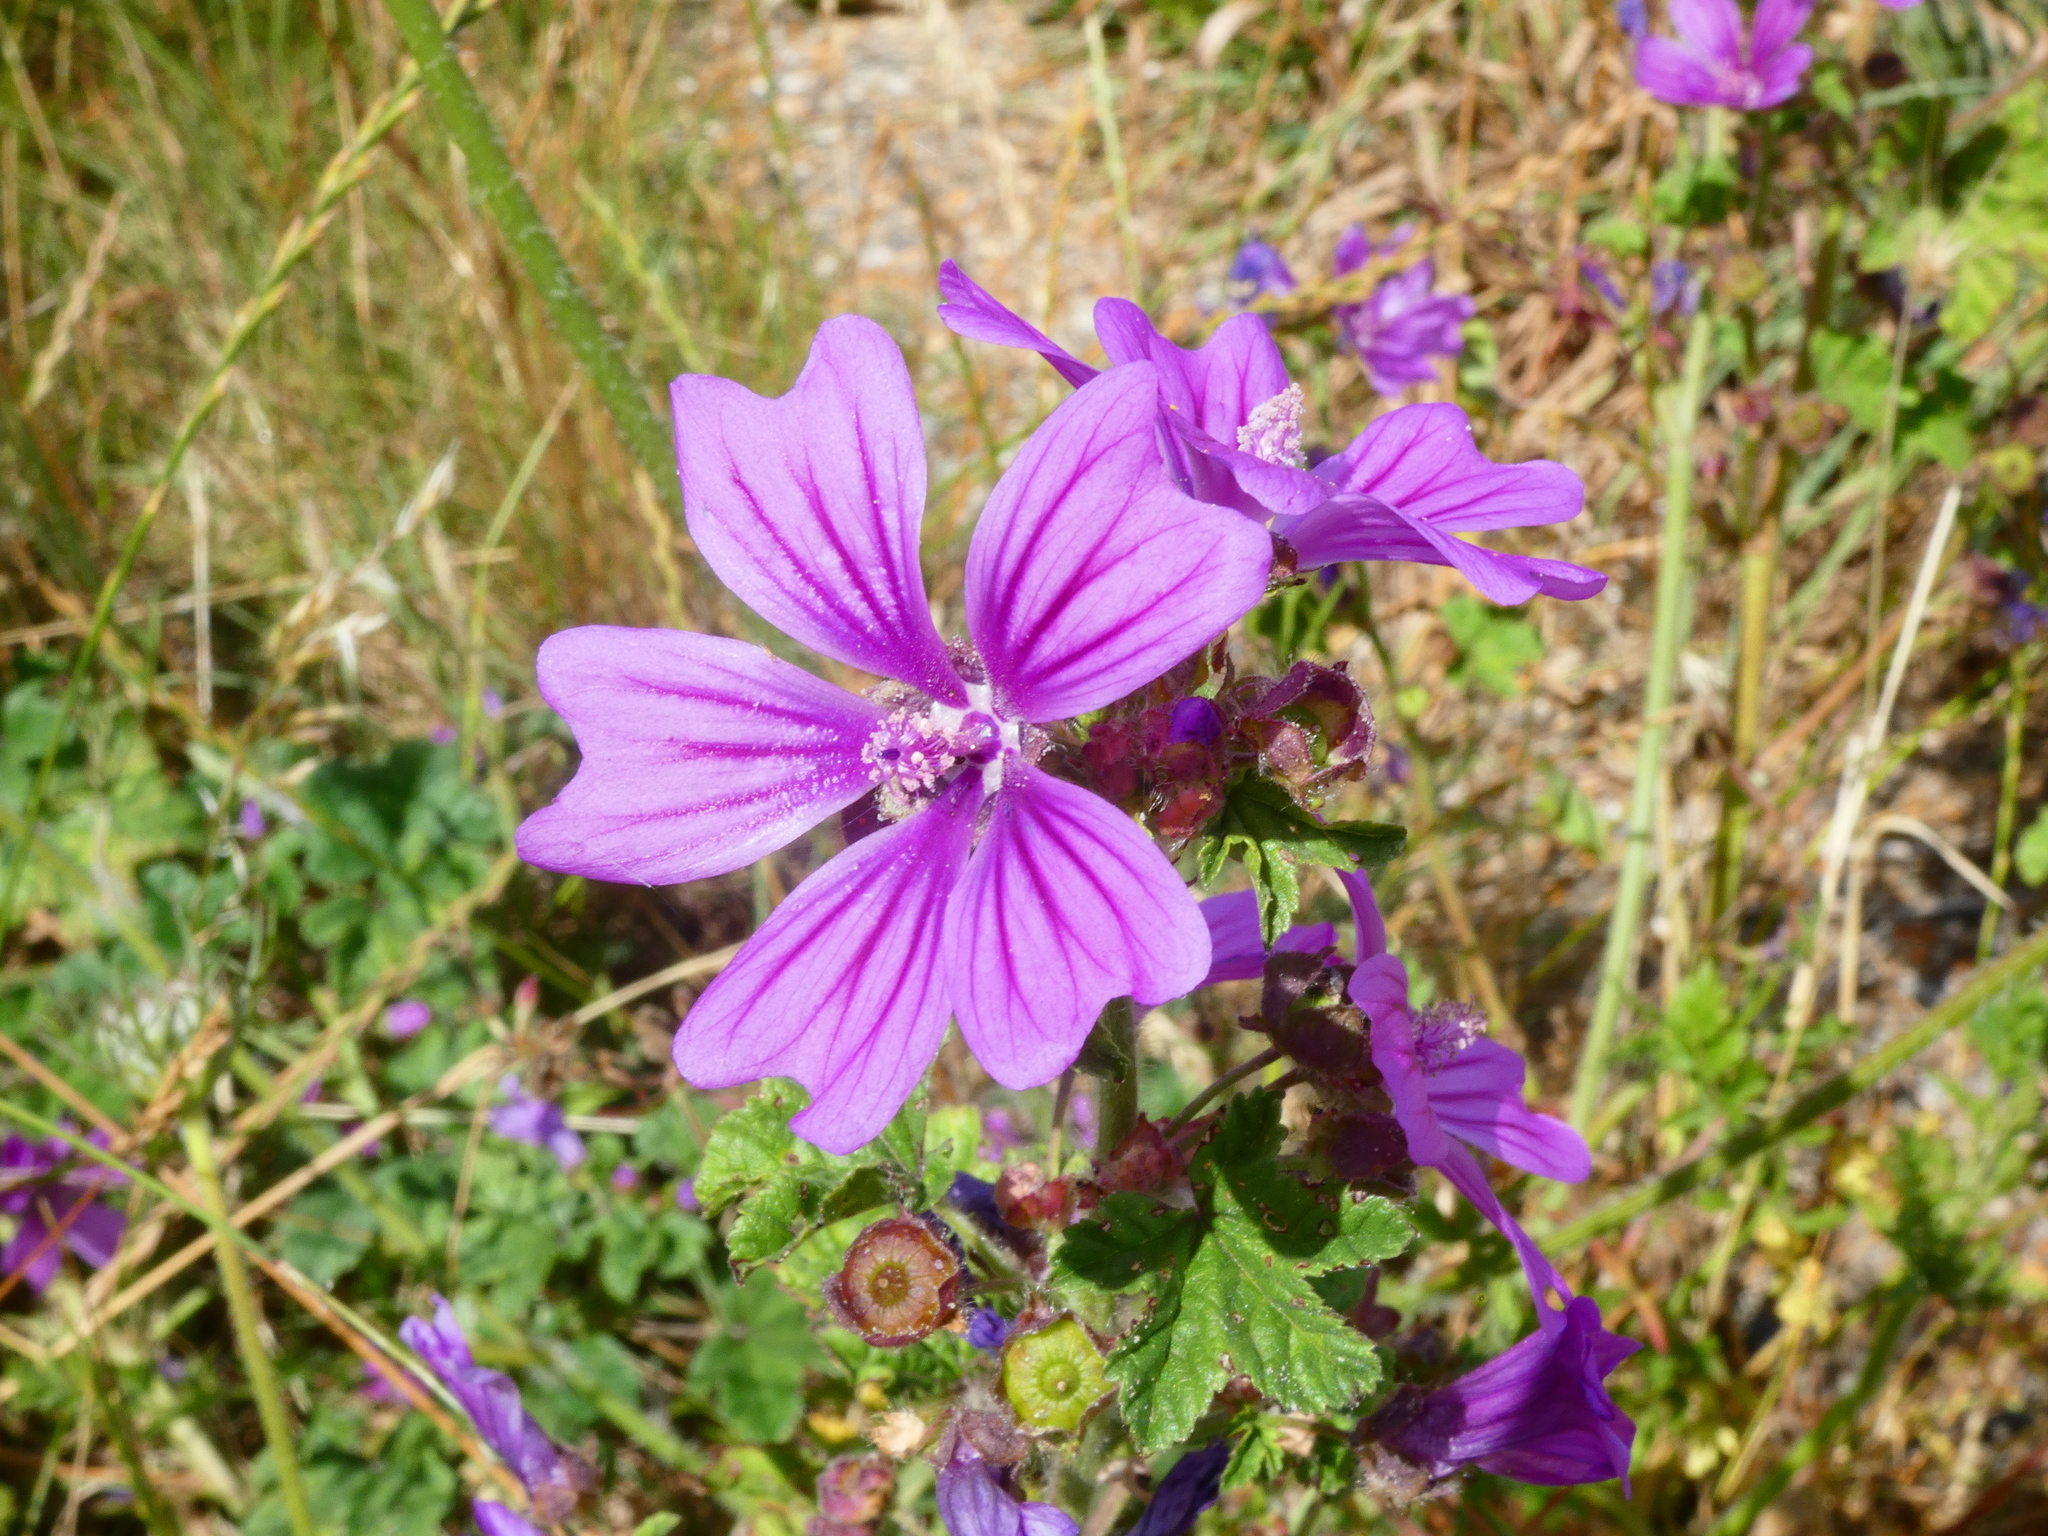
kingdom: Plantae
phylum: Tracheophyta
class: Magnoliopsida
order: Malvales
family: Malvaceae
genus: Malva
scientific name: Malva sylvestris
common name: Common mallow
